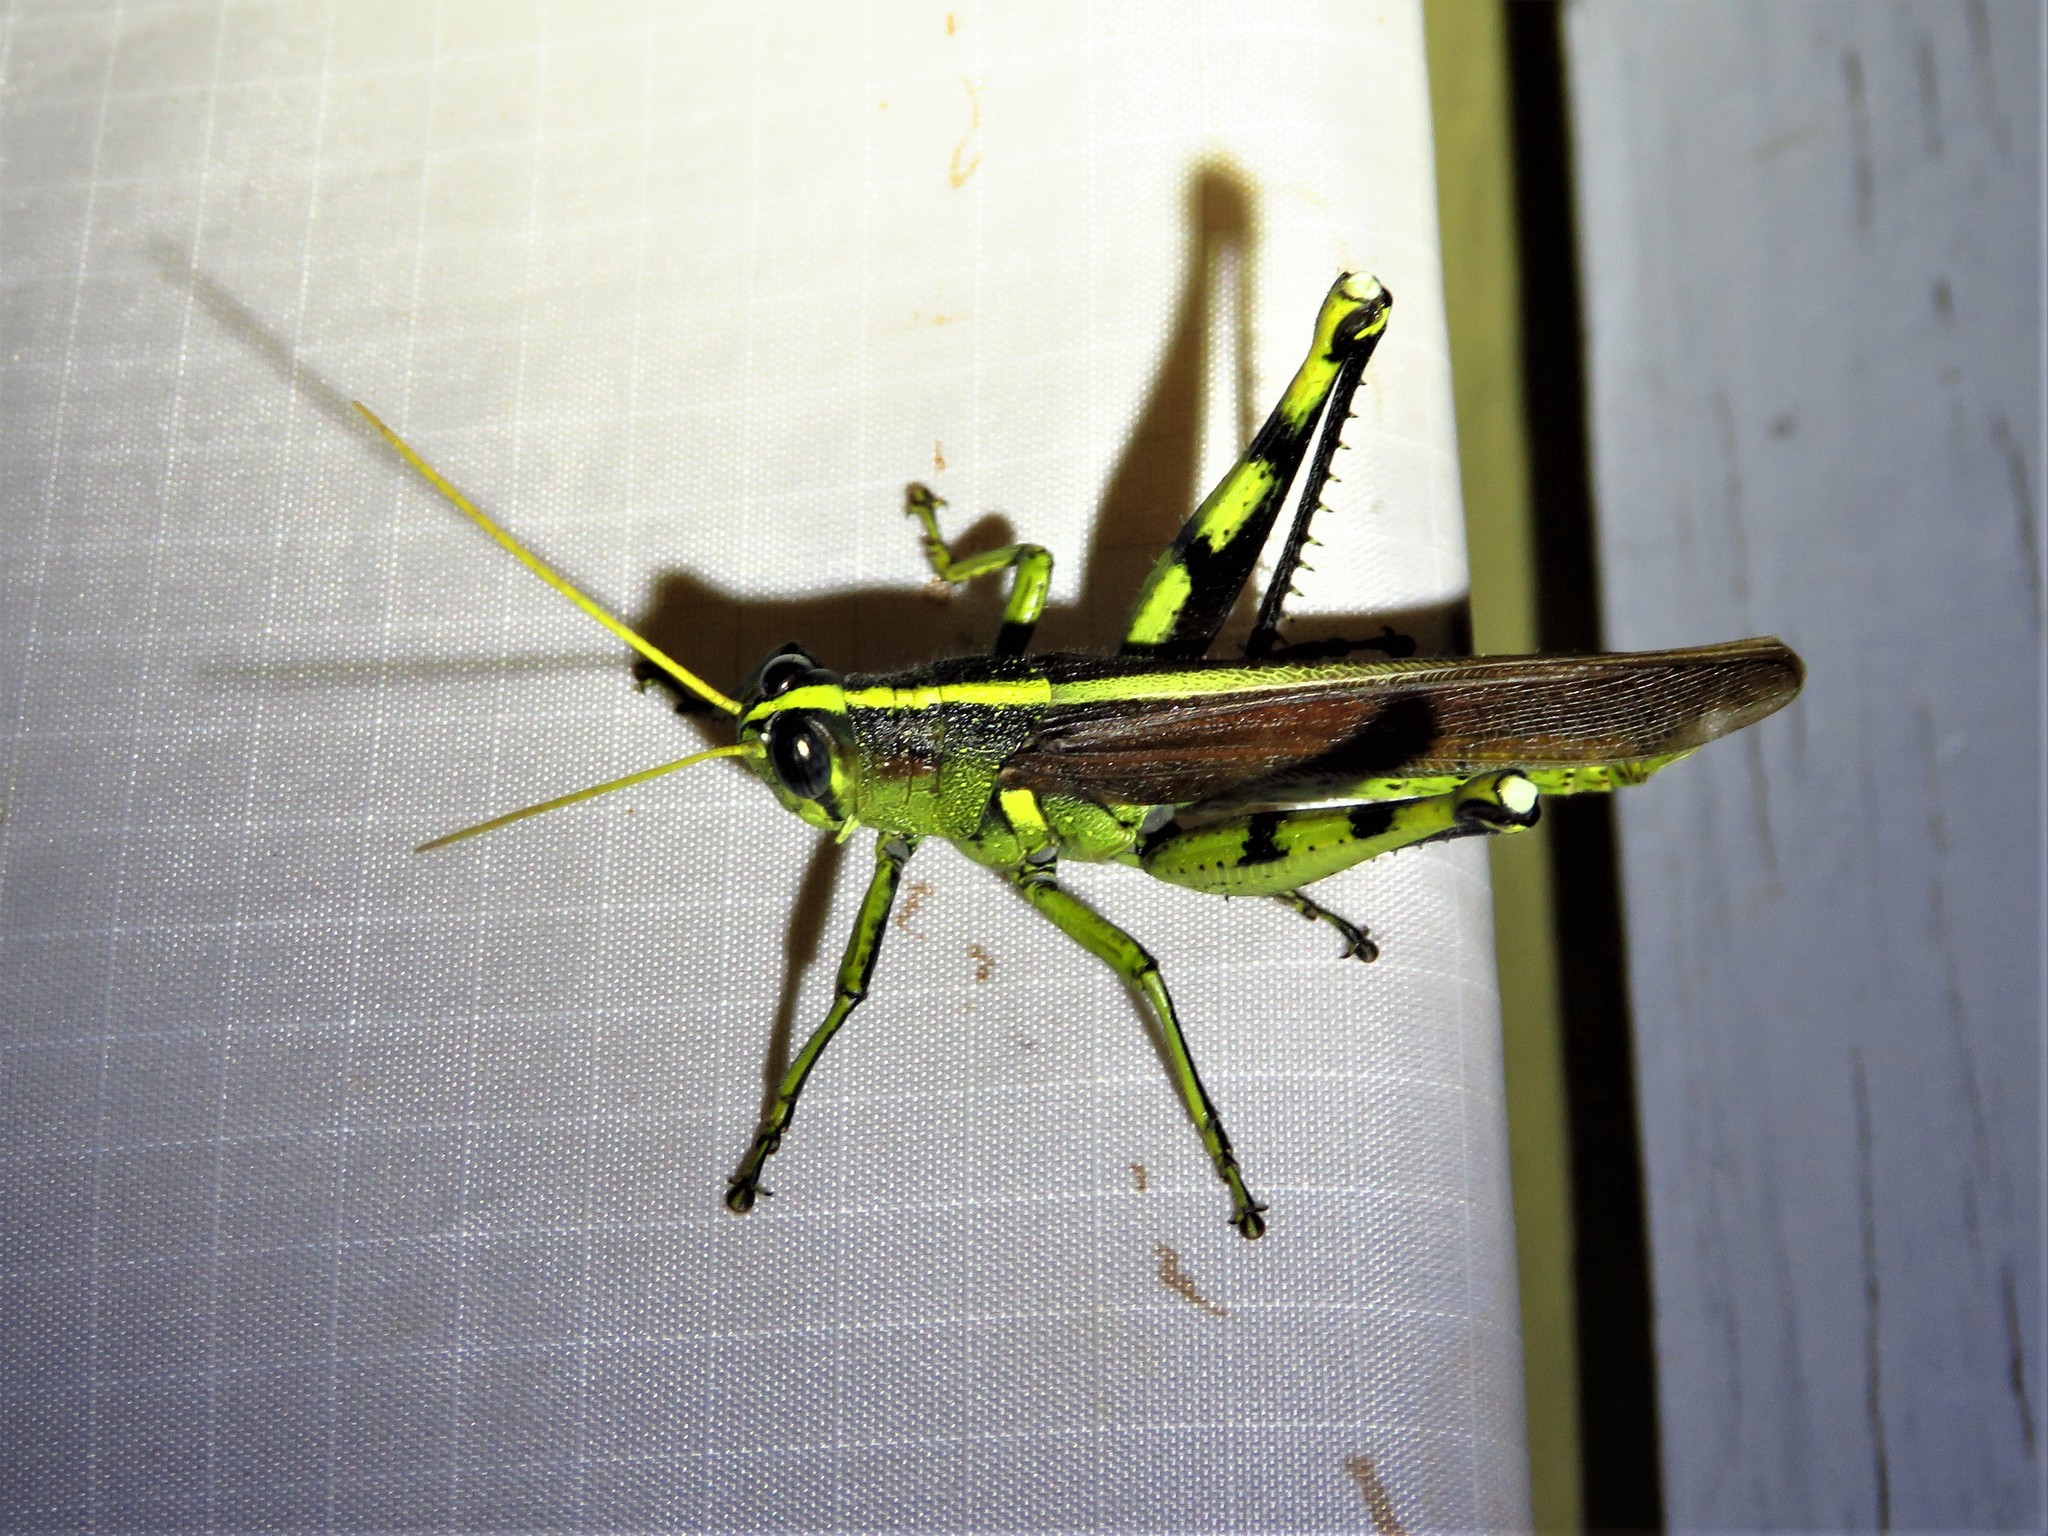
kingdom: Animalia
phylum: Arthropoda
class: Insecta
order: Orthoptera
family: Acrididae
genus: Schistocerca
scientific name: Schistocerca obscura
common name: Obscure bird grasshopper
